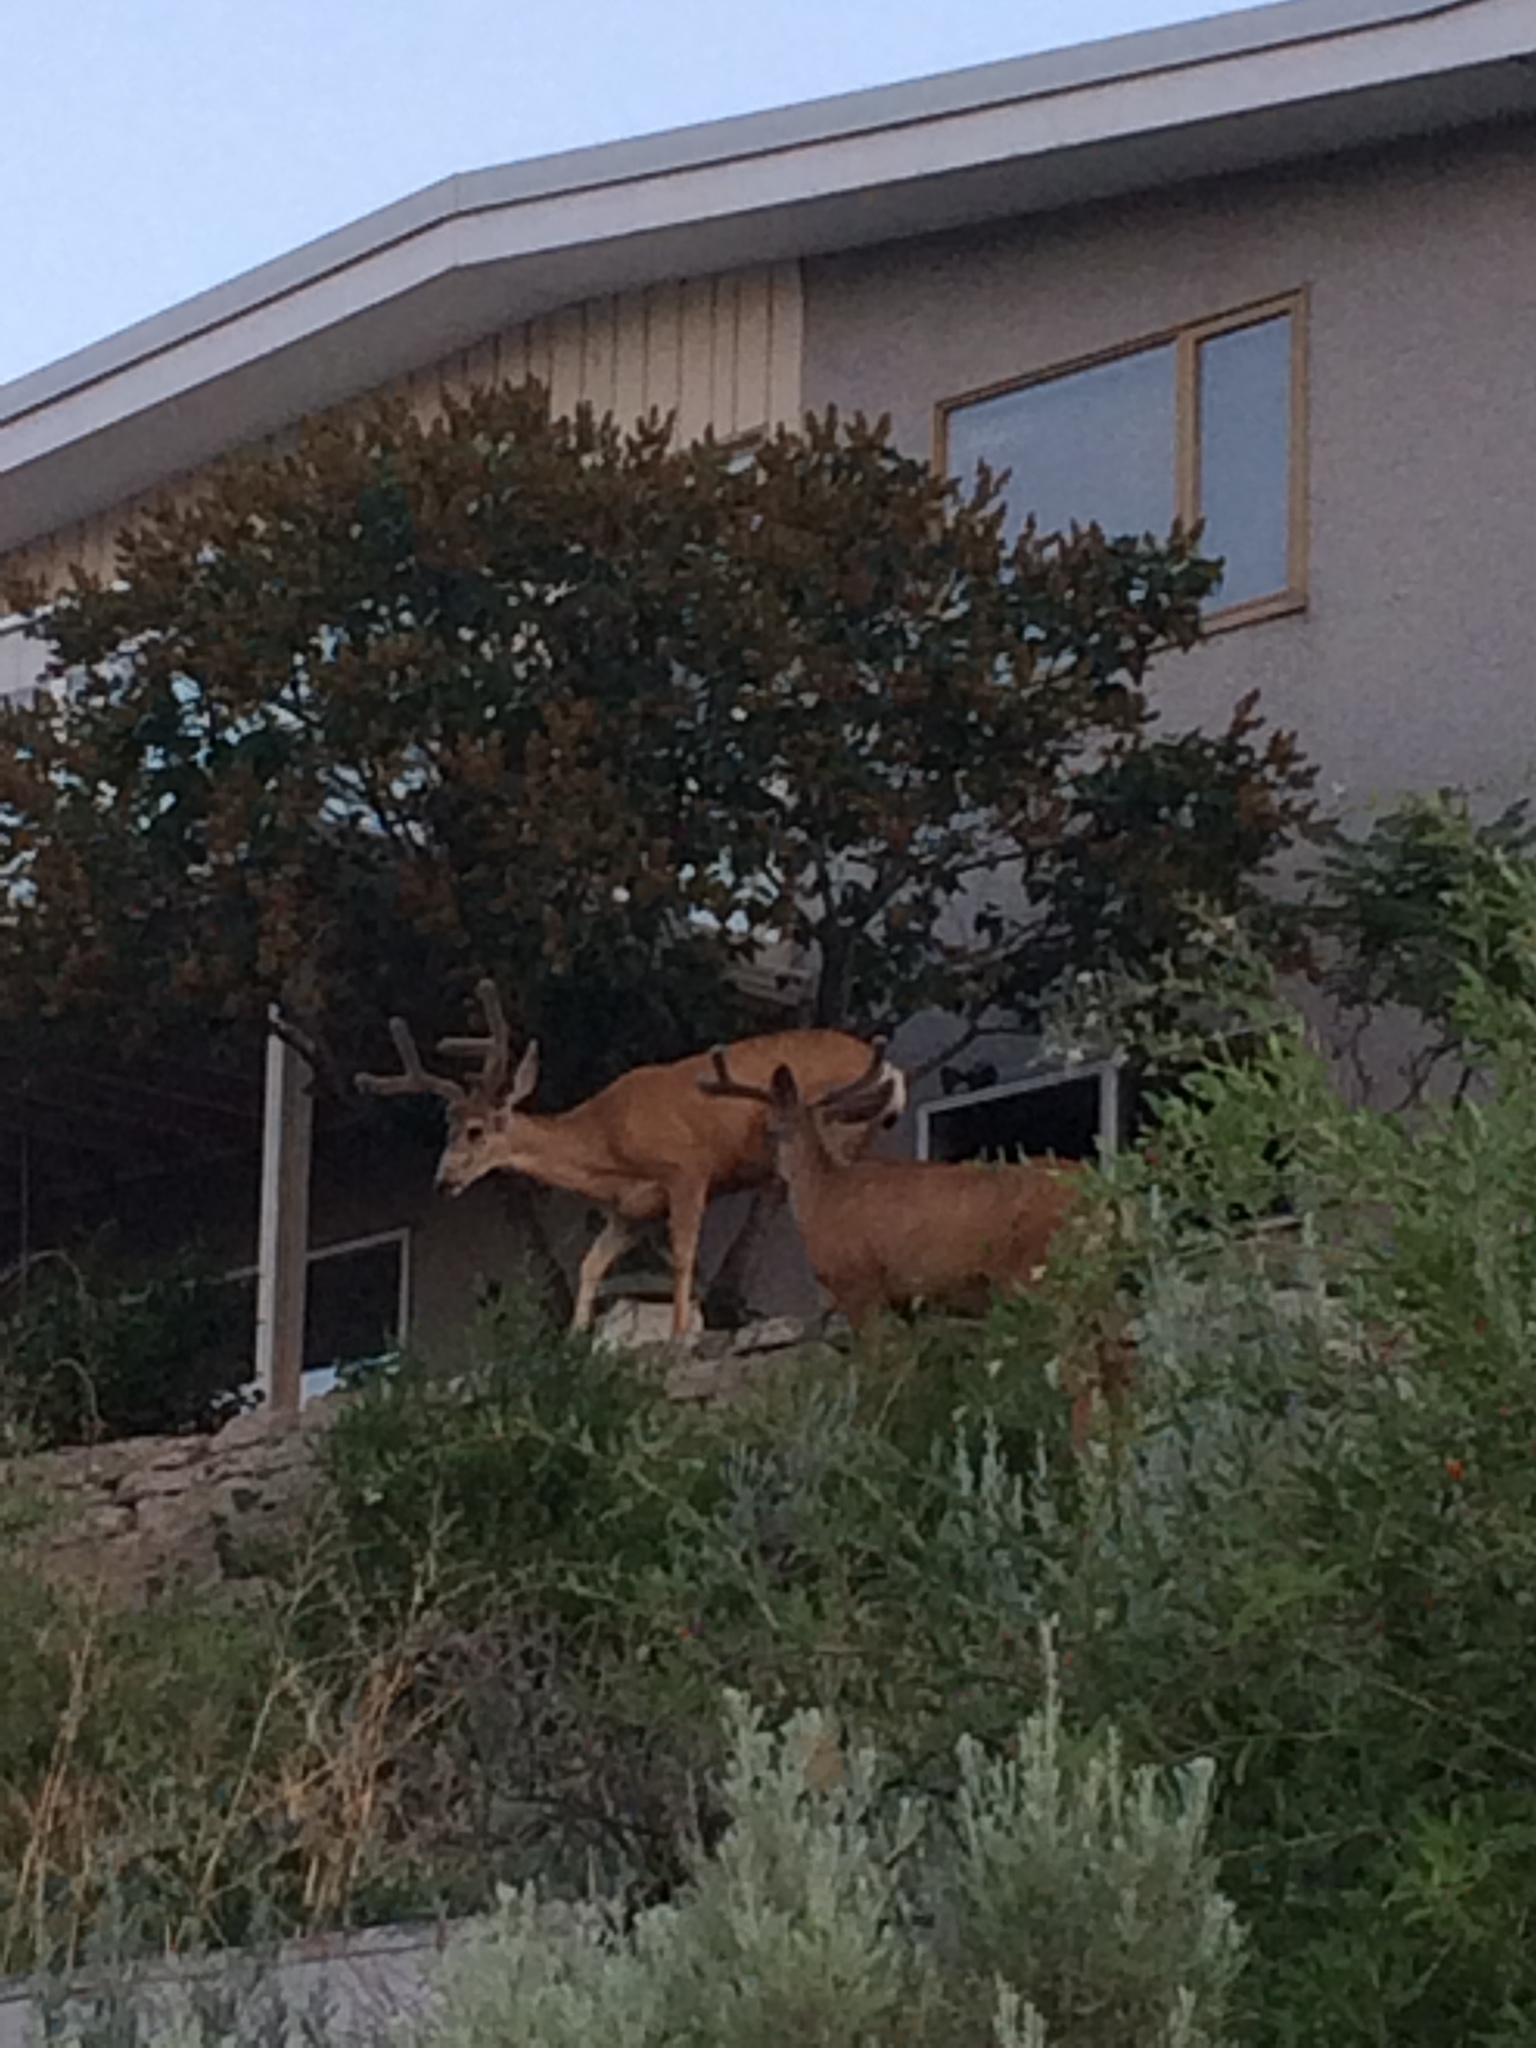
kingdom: Animalia
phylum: Chordata
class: Mammalia
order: Artiodactyla
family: Cervidae
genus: Odocoileus
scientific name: Odocoileus hemionus
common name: Mule deer
